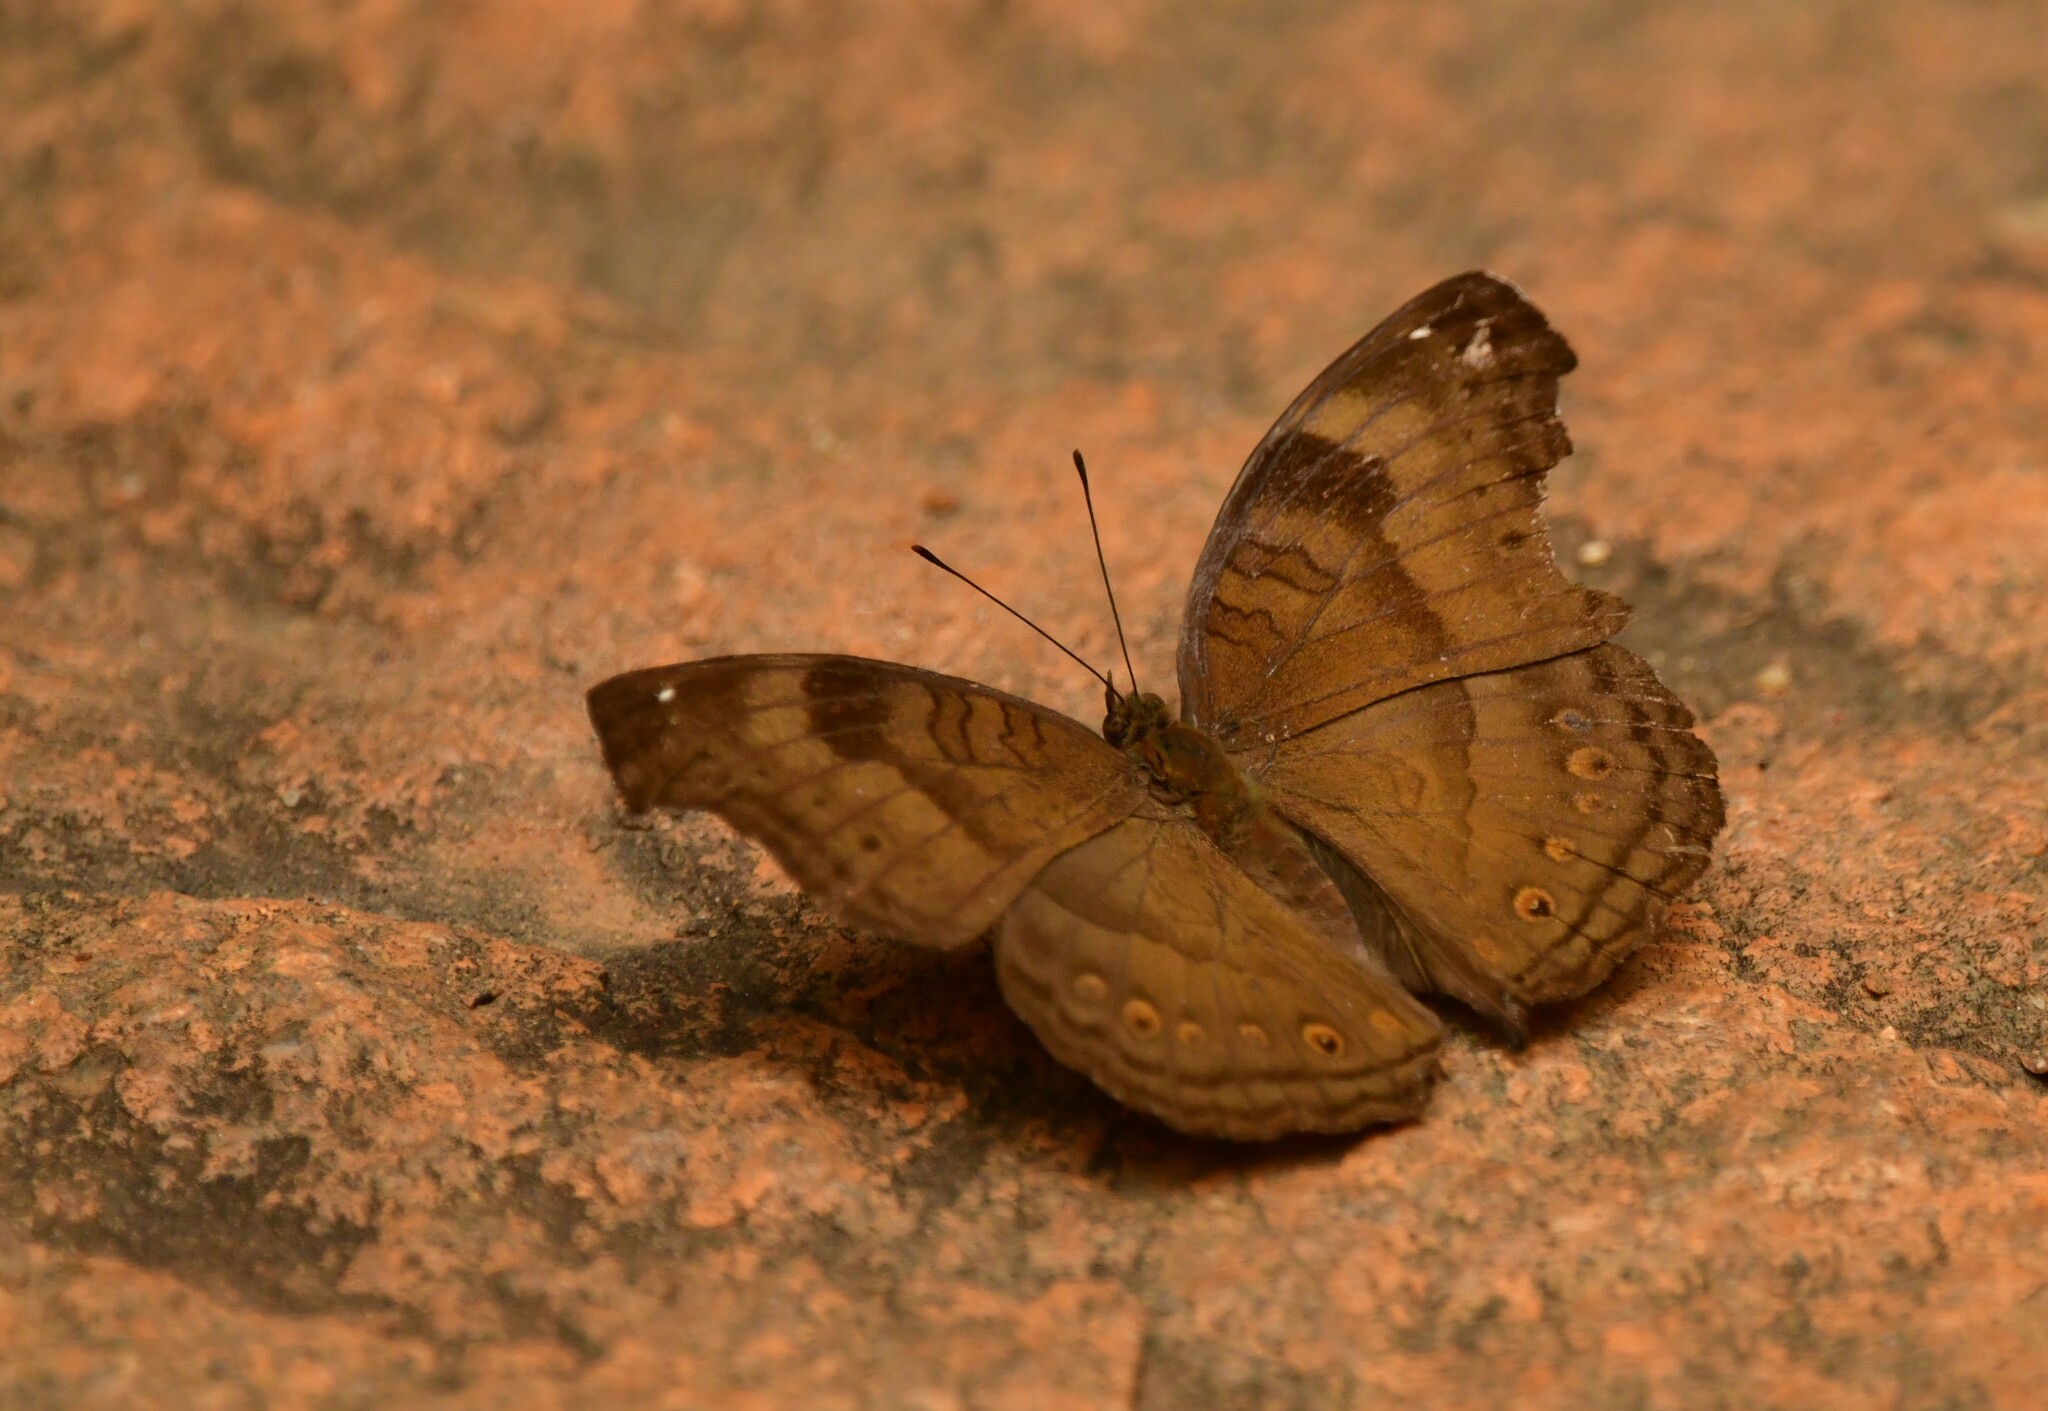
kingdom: Animalia
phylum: Arthropoda
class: Insecta
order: Lepidoptera
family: Nymphalidae
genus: Junonia
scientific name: Junonia iphita
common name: Chocolate pansy
